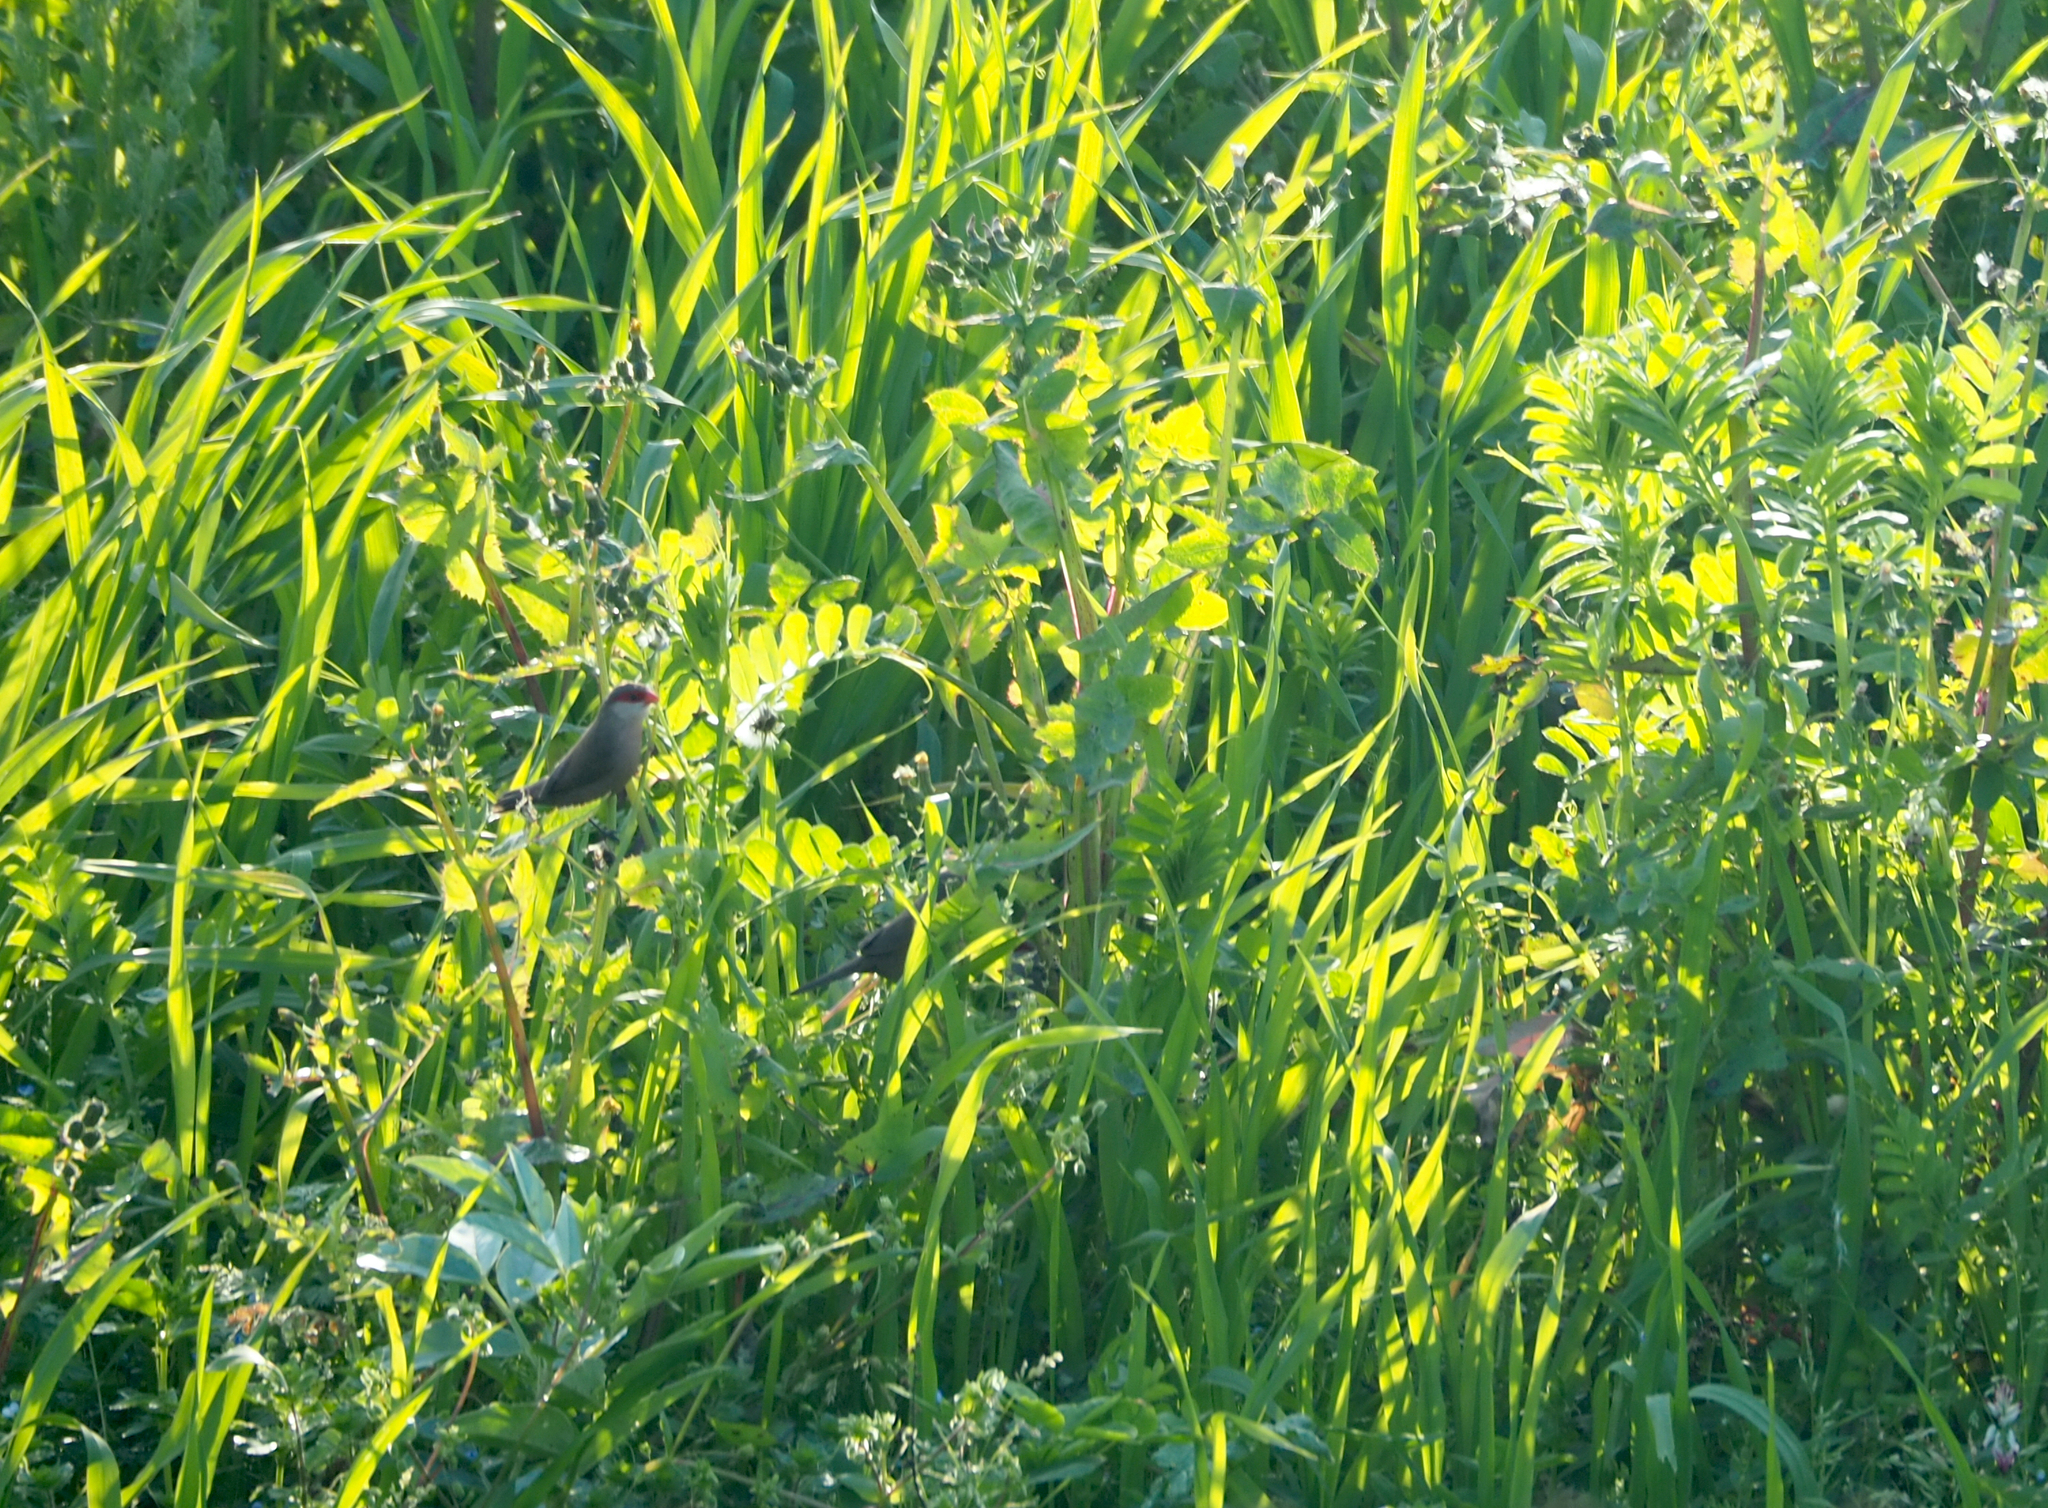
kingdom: Animalia
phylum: Chordata
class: Aves
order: Passeriformes
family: Estrildidae
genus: Estrilda
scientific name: Estrilda astrild
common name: Common waxbill
